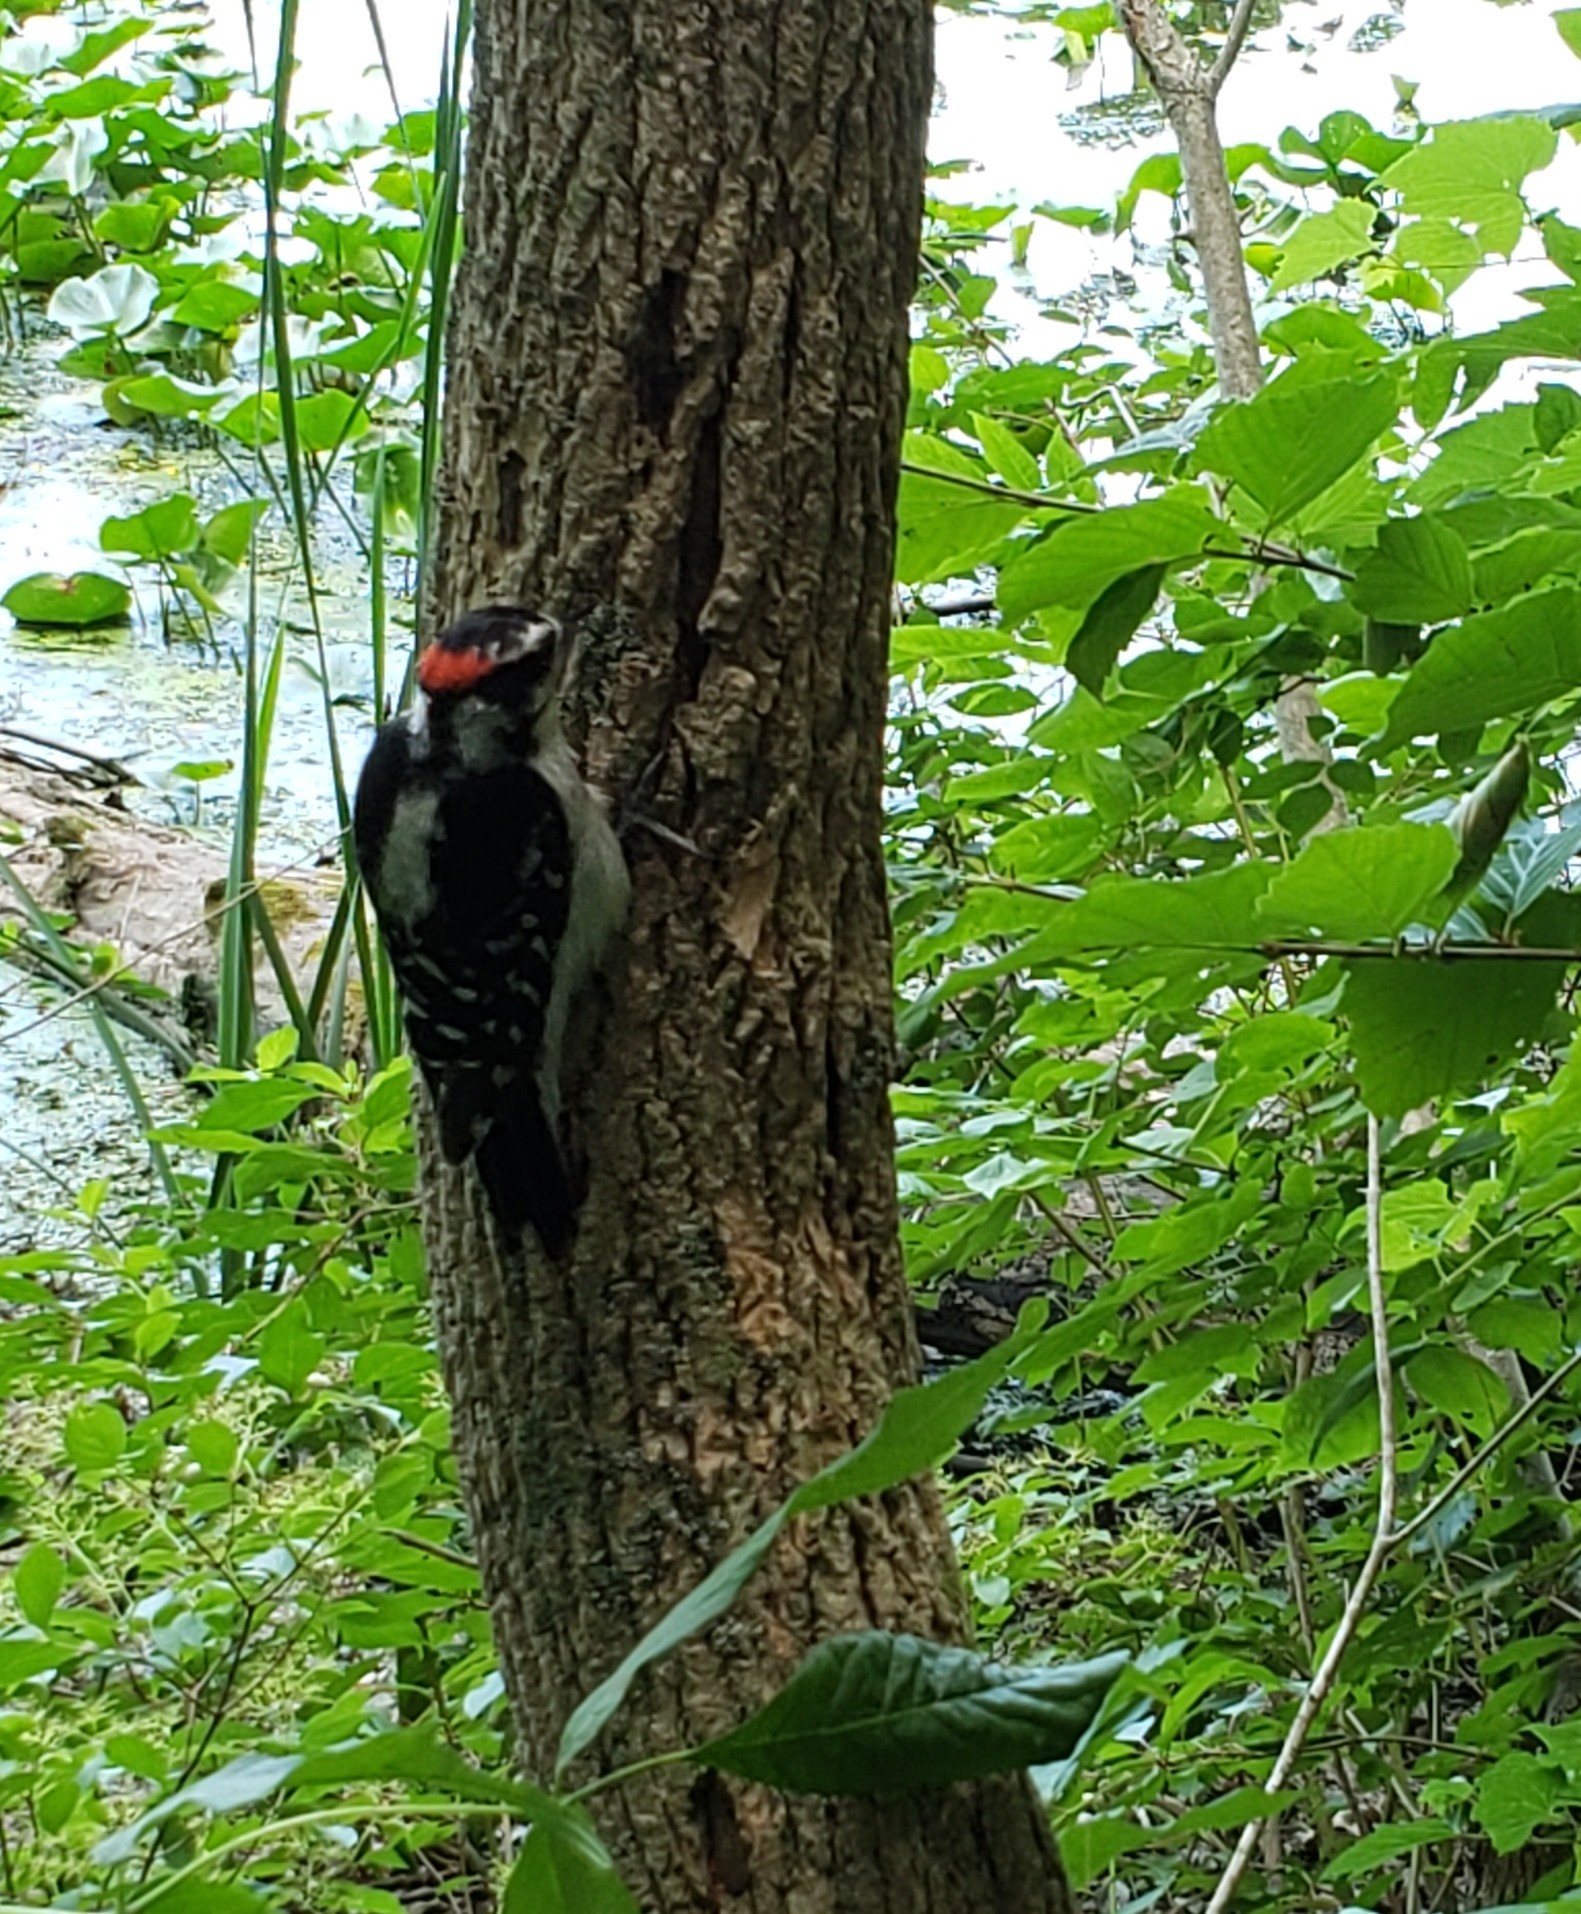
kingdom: Animalia
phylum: Chordata
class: Aves
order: Piciformes
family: Picidae
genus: Dryobates
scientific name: Dryobates pubescens
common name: Downy woodpecker
